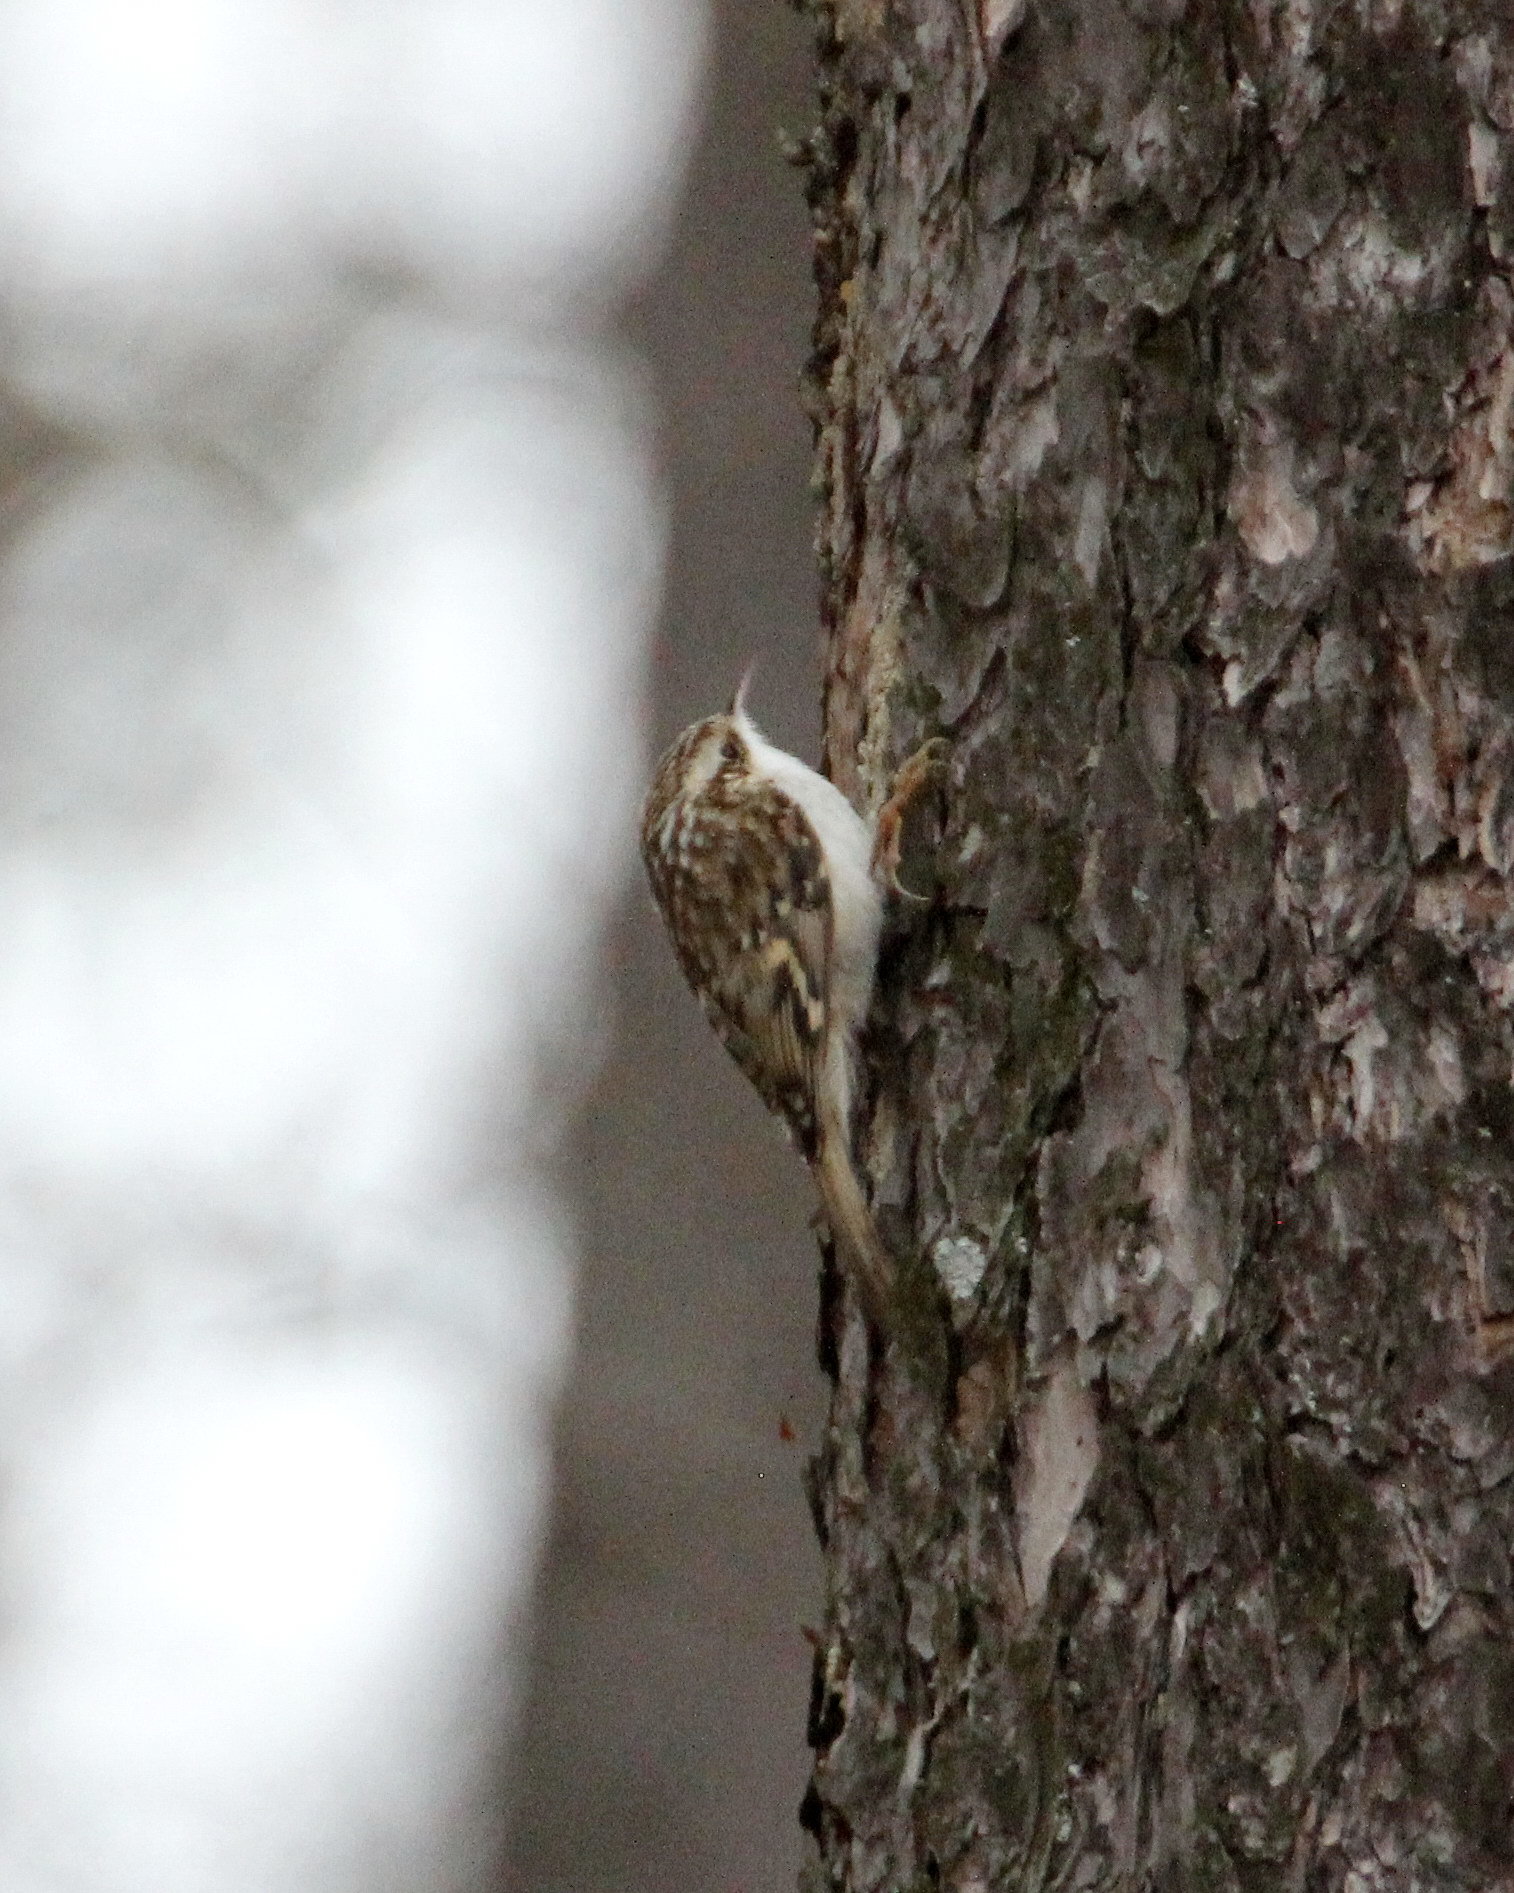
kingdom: Animalia
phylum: Chordata
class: Aves
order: Passeriformes
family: Certhiidae
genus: Certhia
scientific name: Certhia familiaris
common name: Eurasian treecreeper
